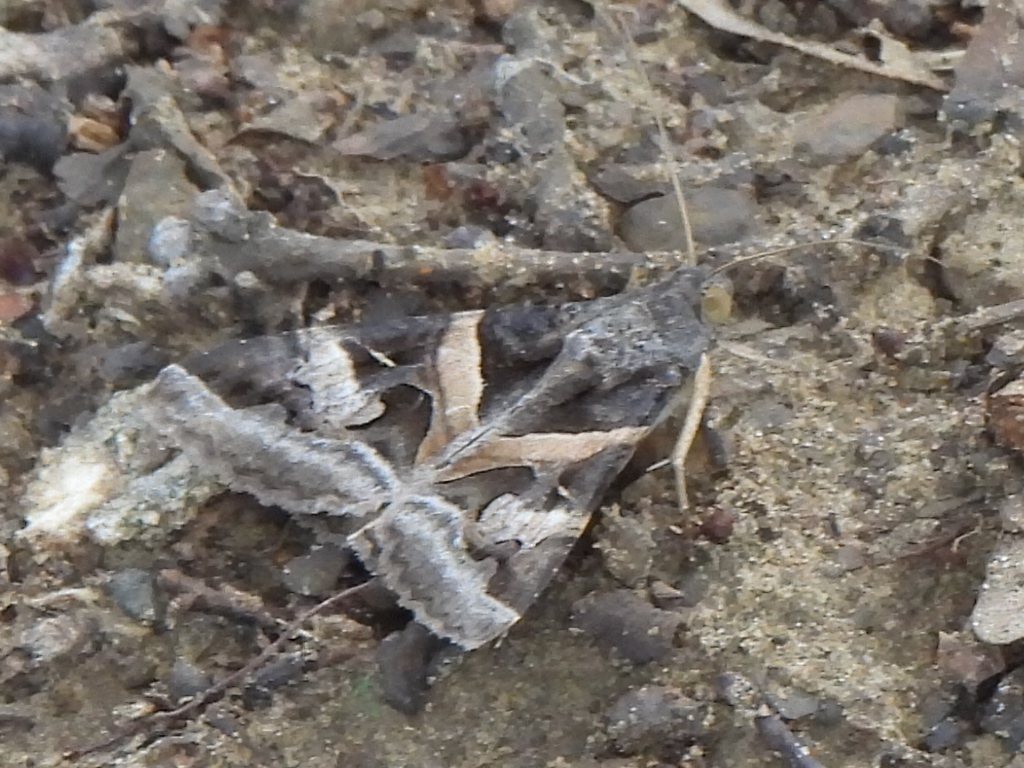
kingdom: Animalia
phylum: Arthropoda
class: Insecta
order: Lepidoptera
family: Erebidae
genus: Melipotis
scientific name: Melipotis indomita
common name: Moth
